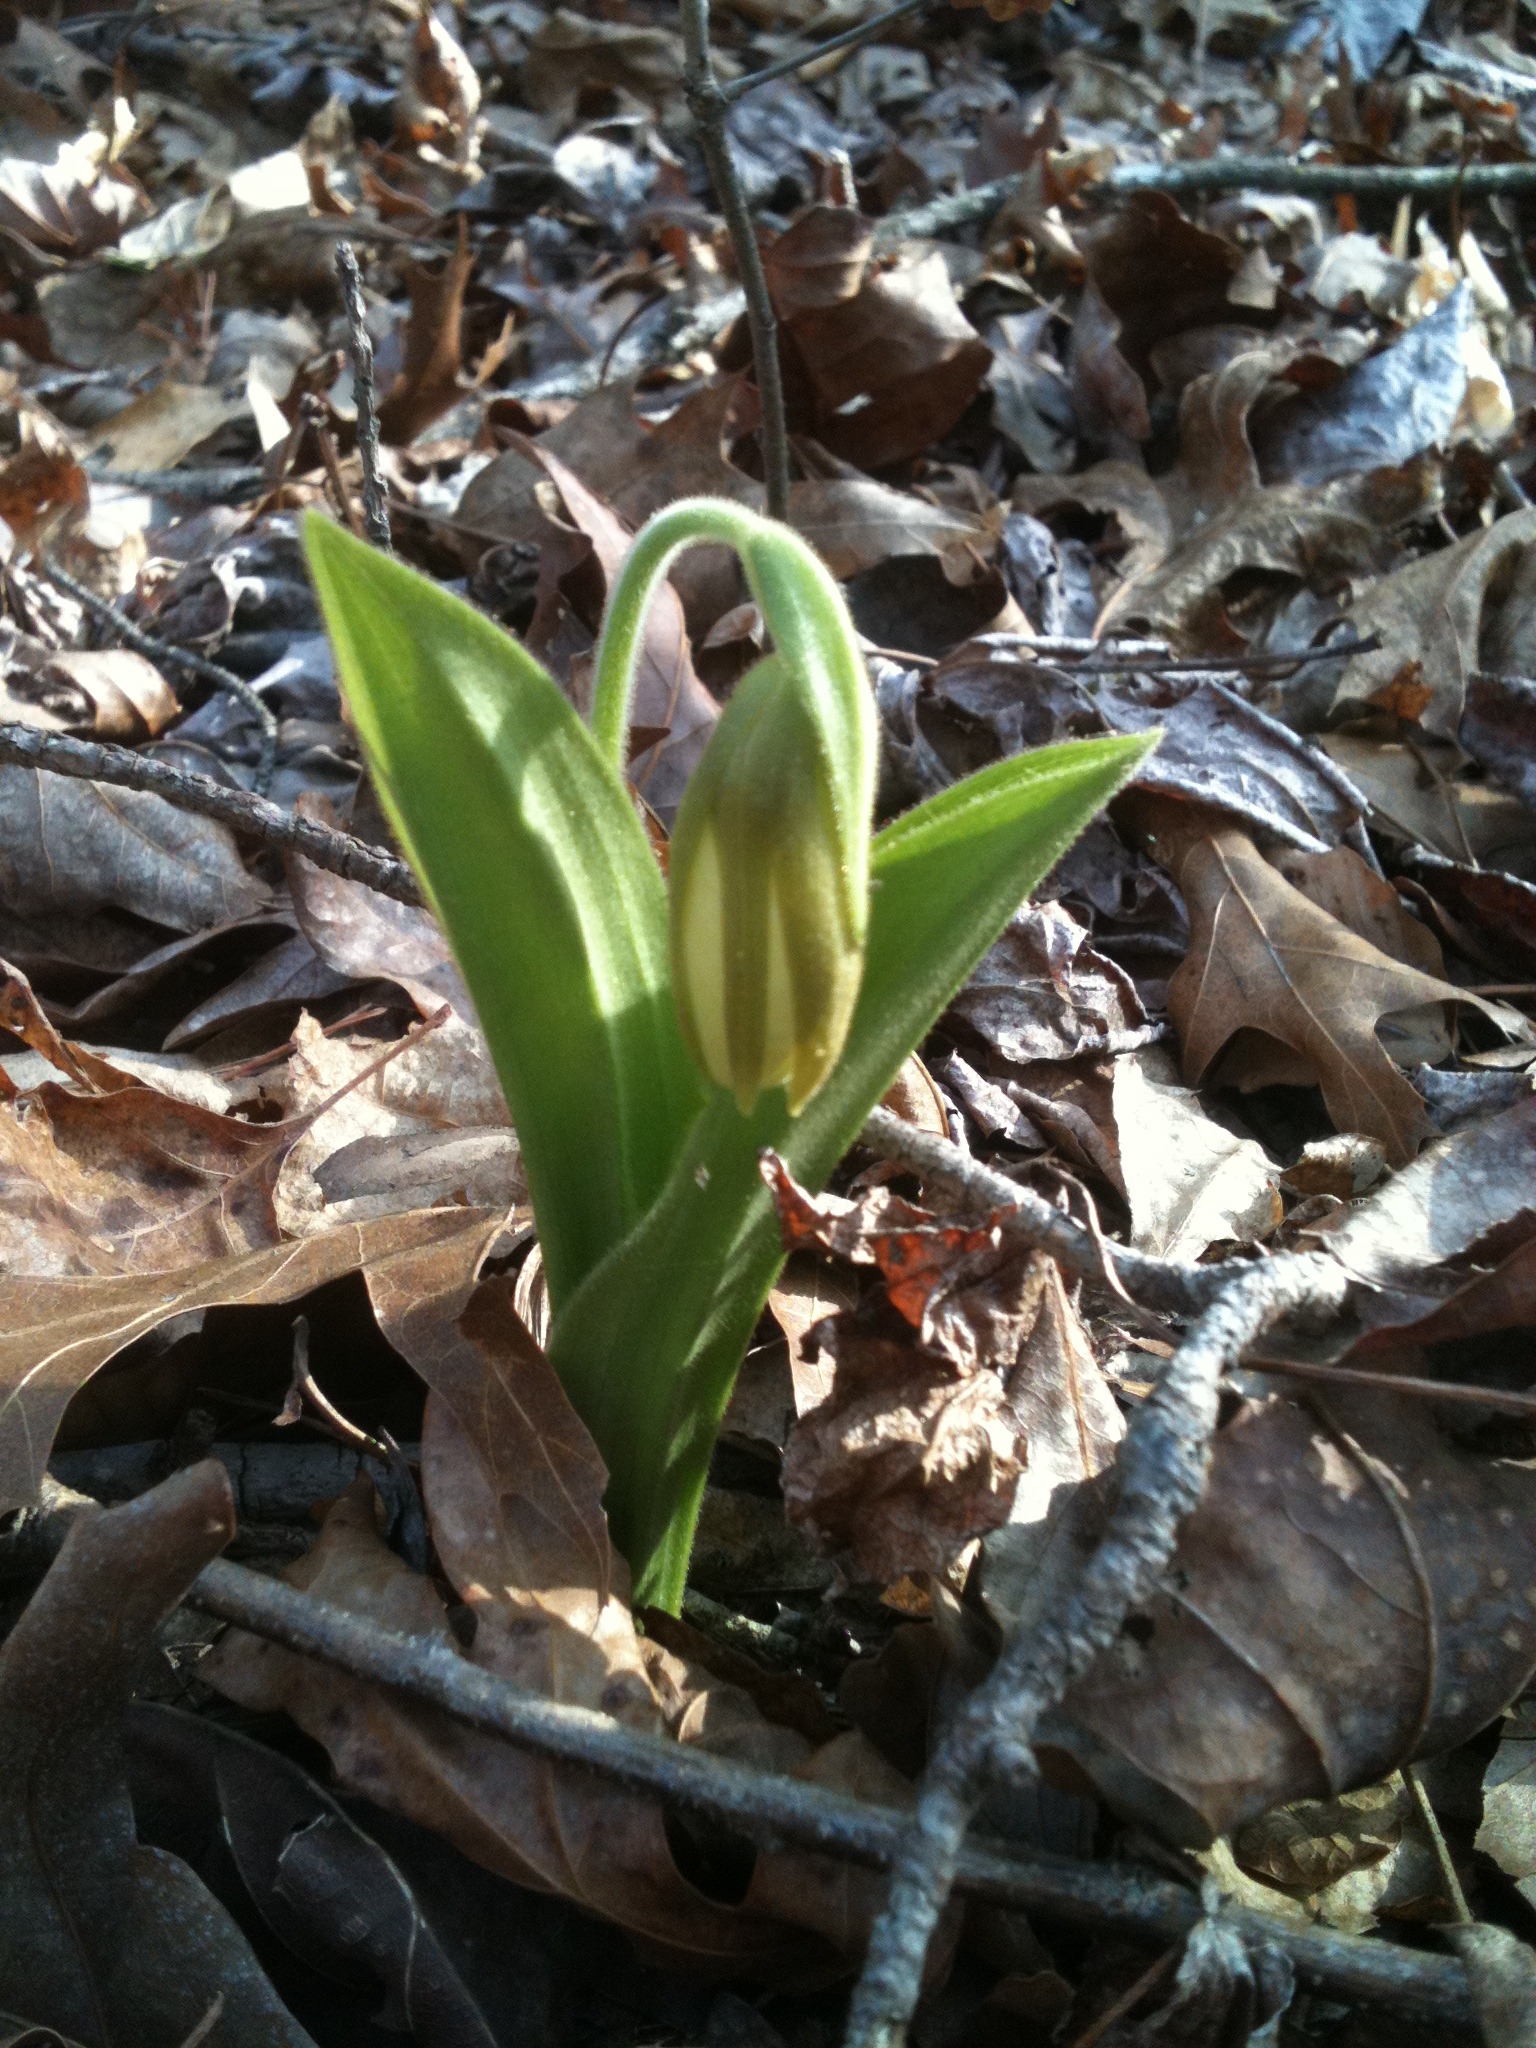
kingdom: Plantae
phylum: Tracheophyta
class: Liliopsida
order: Asparagales
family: Orchidaceae
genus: Cypripedium
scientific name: Cypripedium acaule
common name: Pink lady's-slipper
